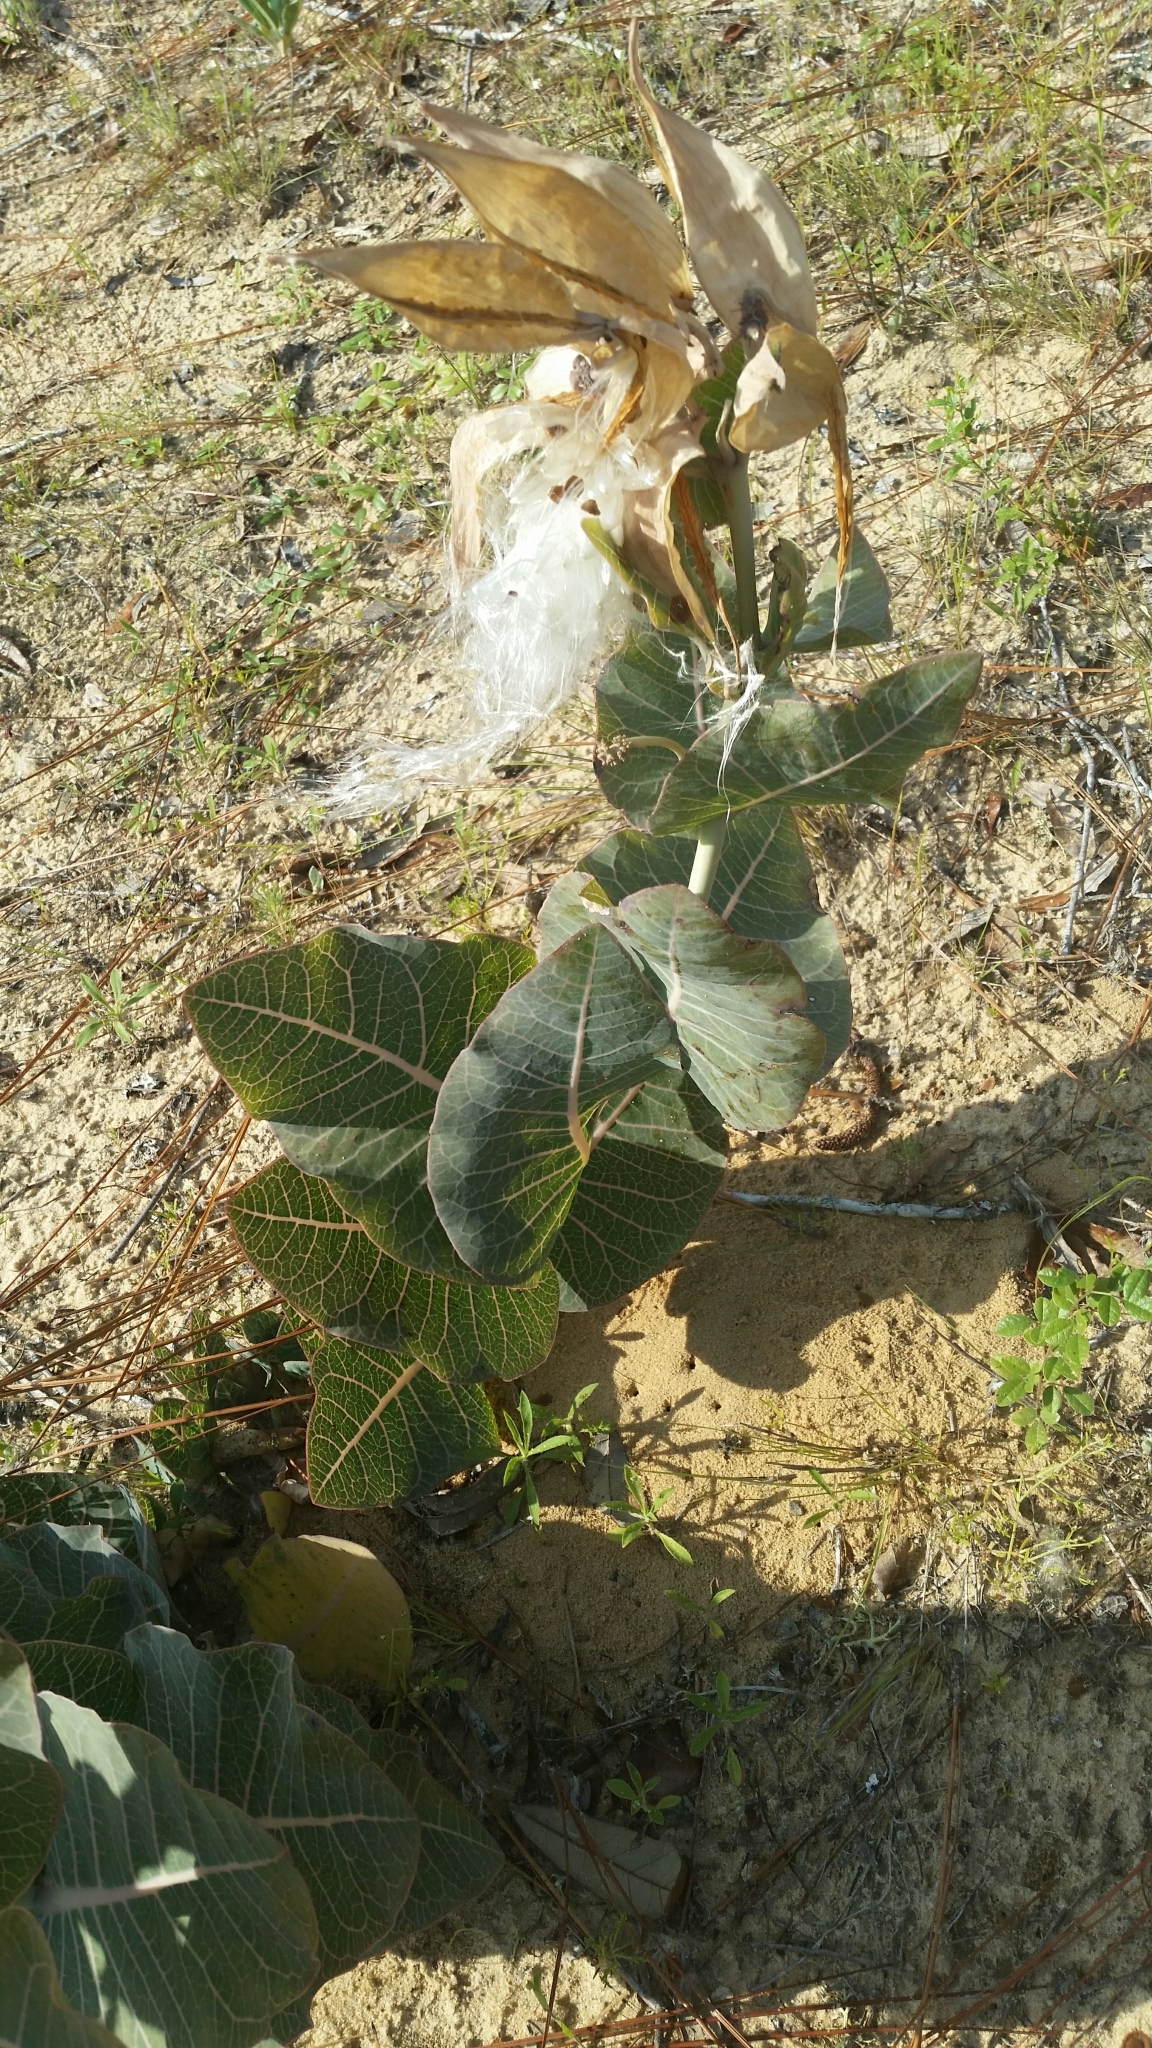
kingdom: Plantae
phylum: Tracheophyta
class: Magnoliopsida
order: Gentianales
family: Apocynaceae
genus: Asclepias
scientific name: Asclepias humistrata
